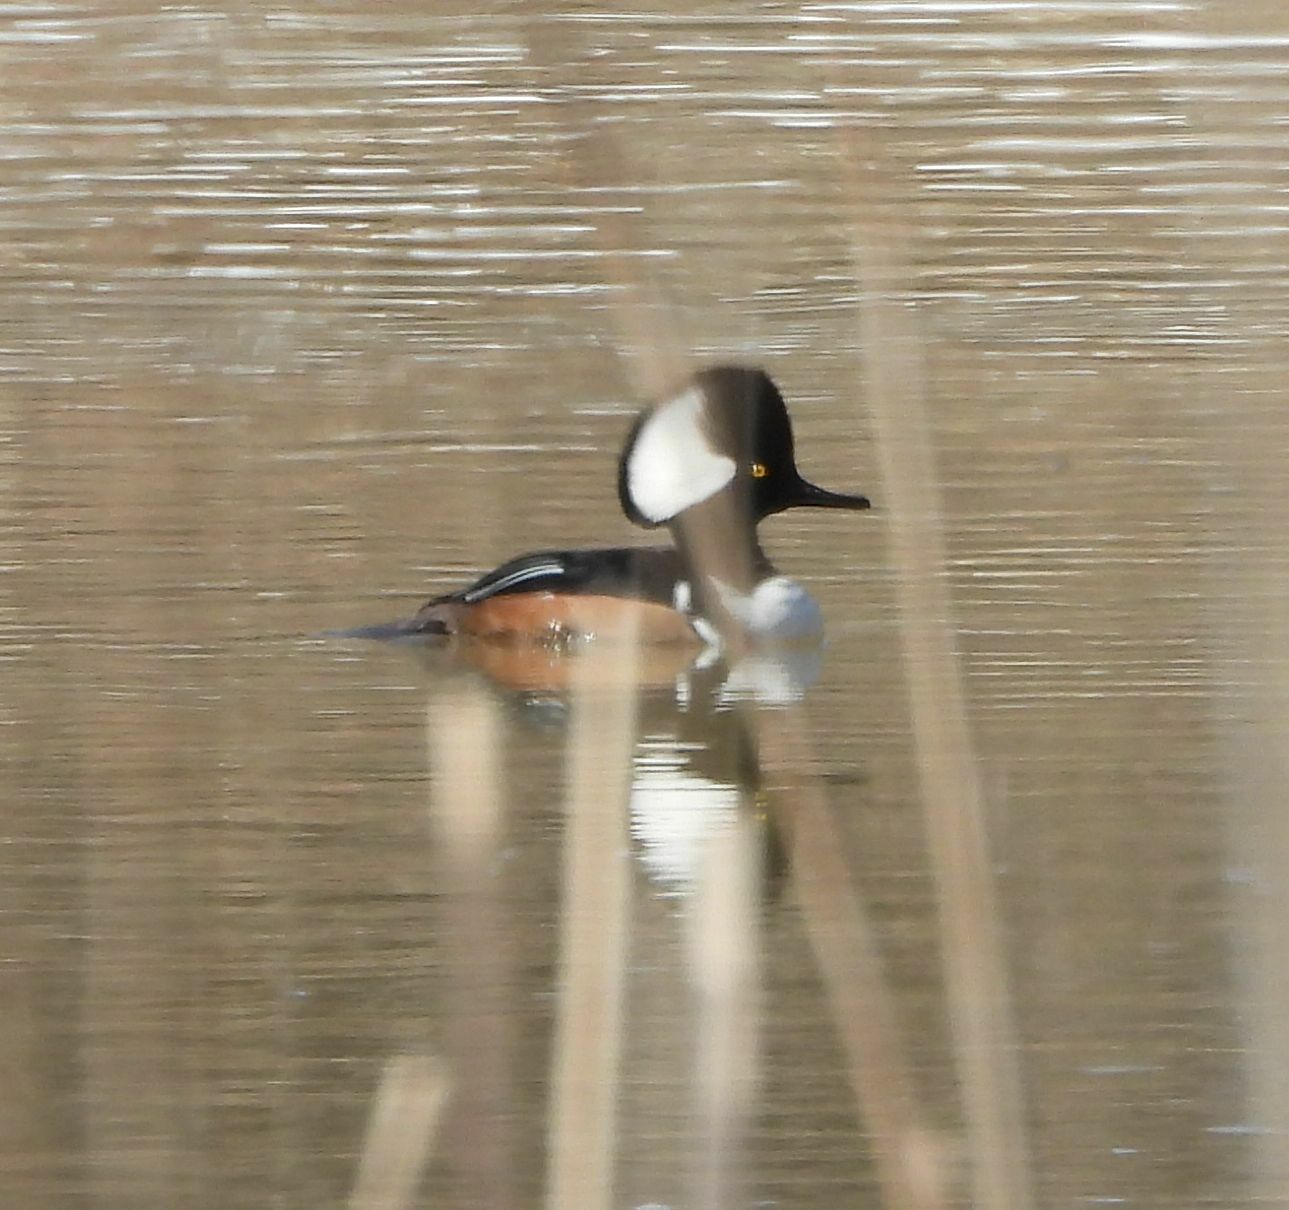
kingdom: Animalia
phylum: Chordata
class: Aves
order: Anseriformes
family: Anatidae
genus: Lophodytes
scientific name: Lophodytes cucullatus
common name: Hooded merganser
